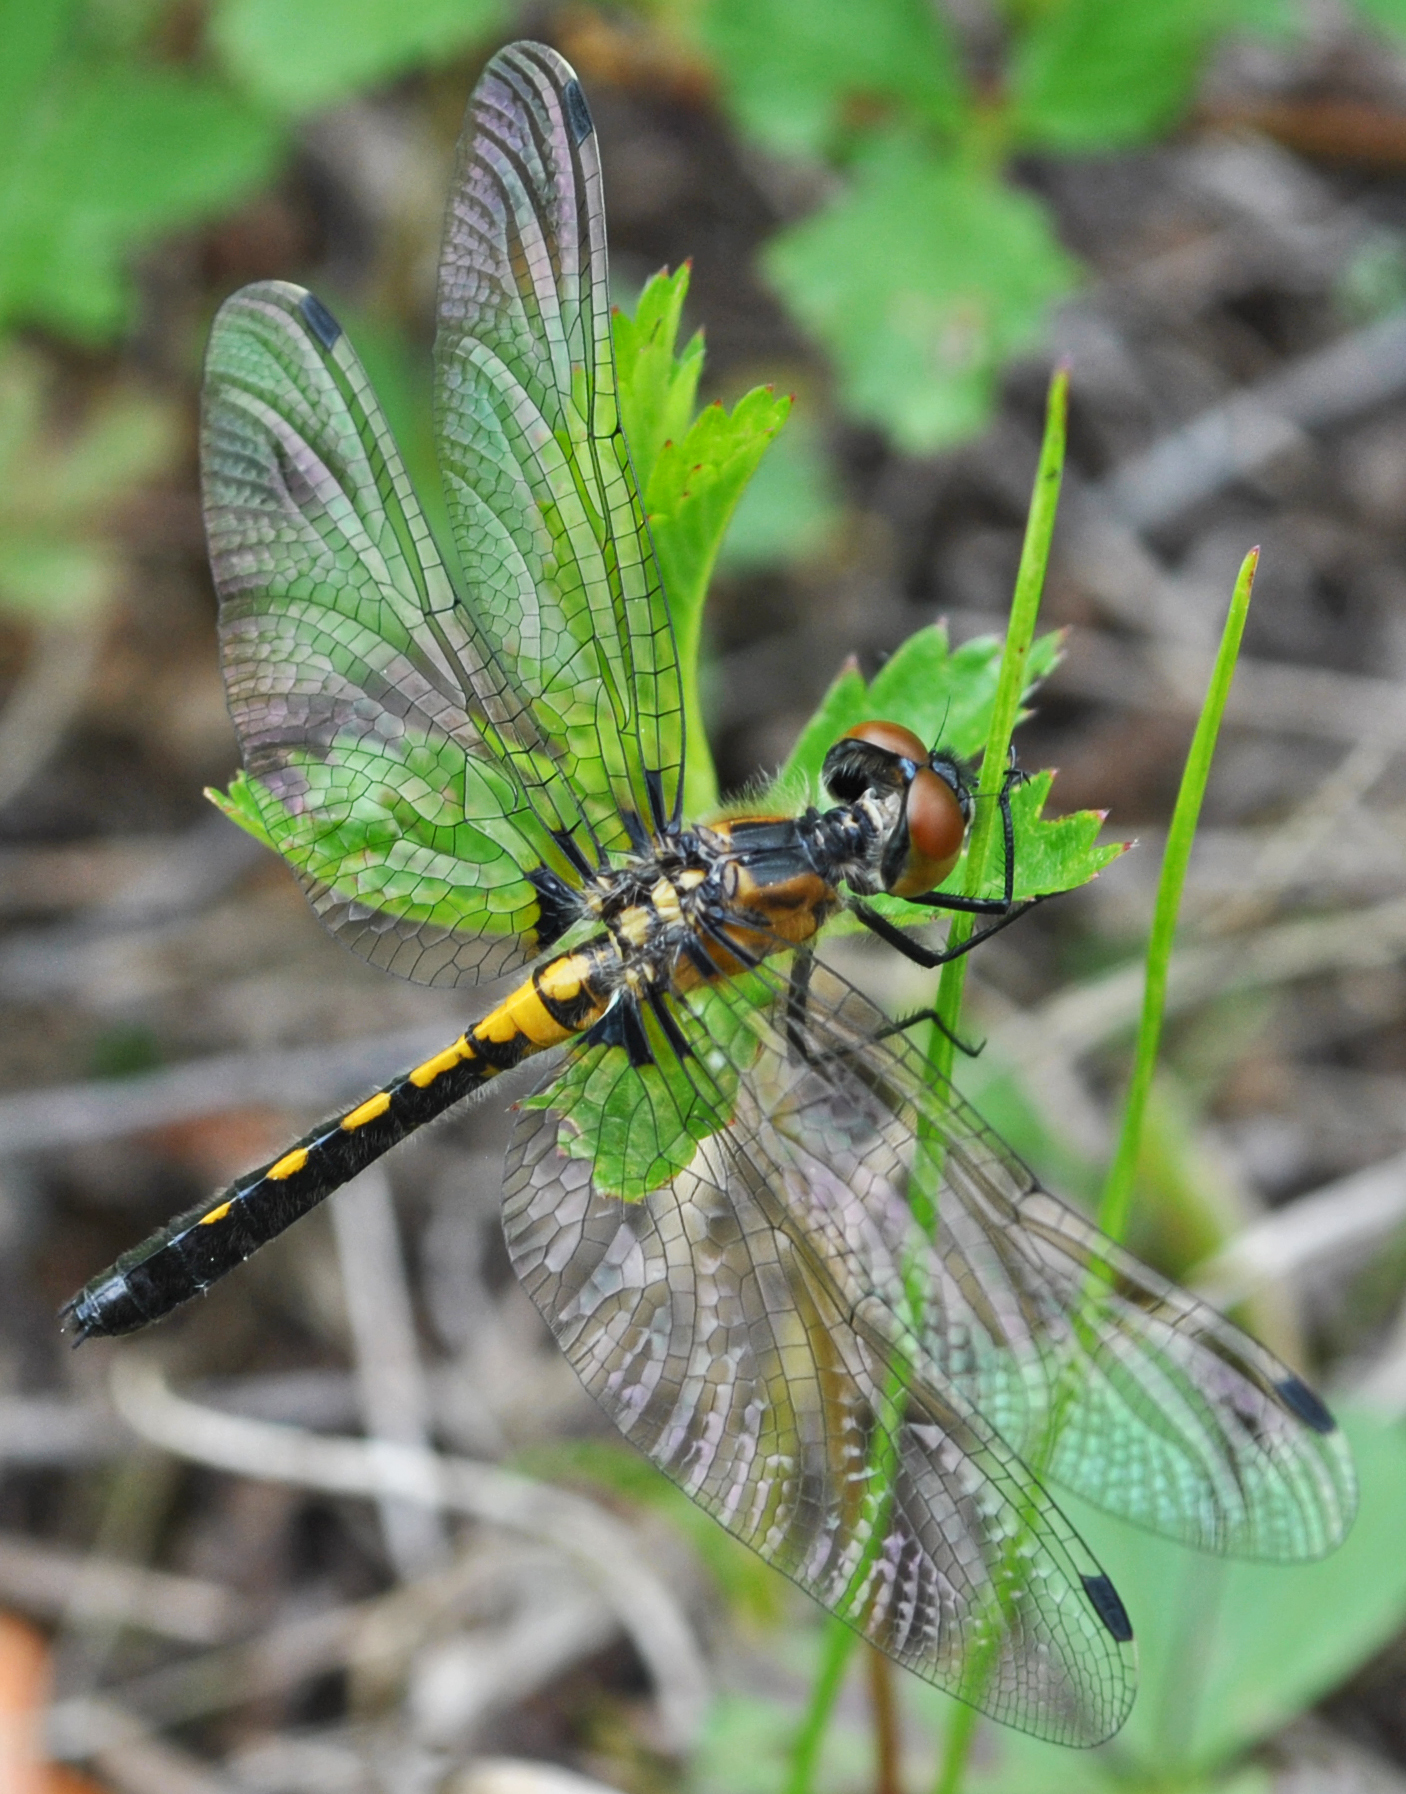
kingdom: Animalia
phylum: Arthropoda
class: Insecta
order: Odonata
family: Libellulidae
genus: Leucorrhinia
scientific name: Leucorrhinia proxima
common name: Belted whiteface
